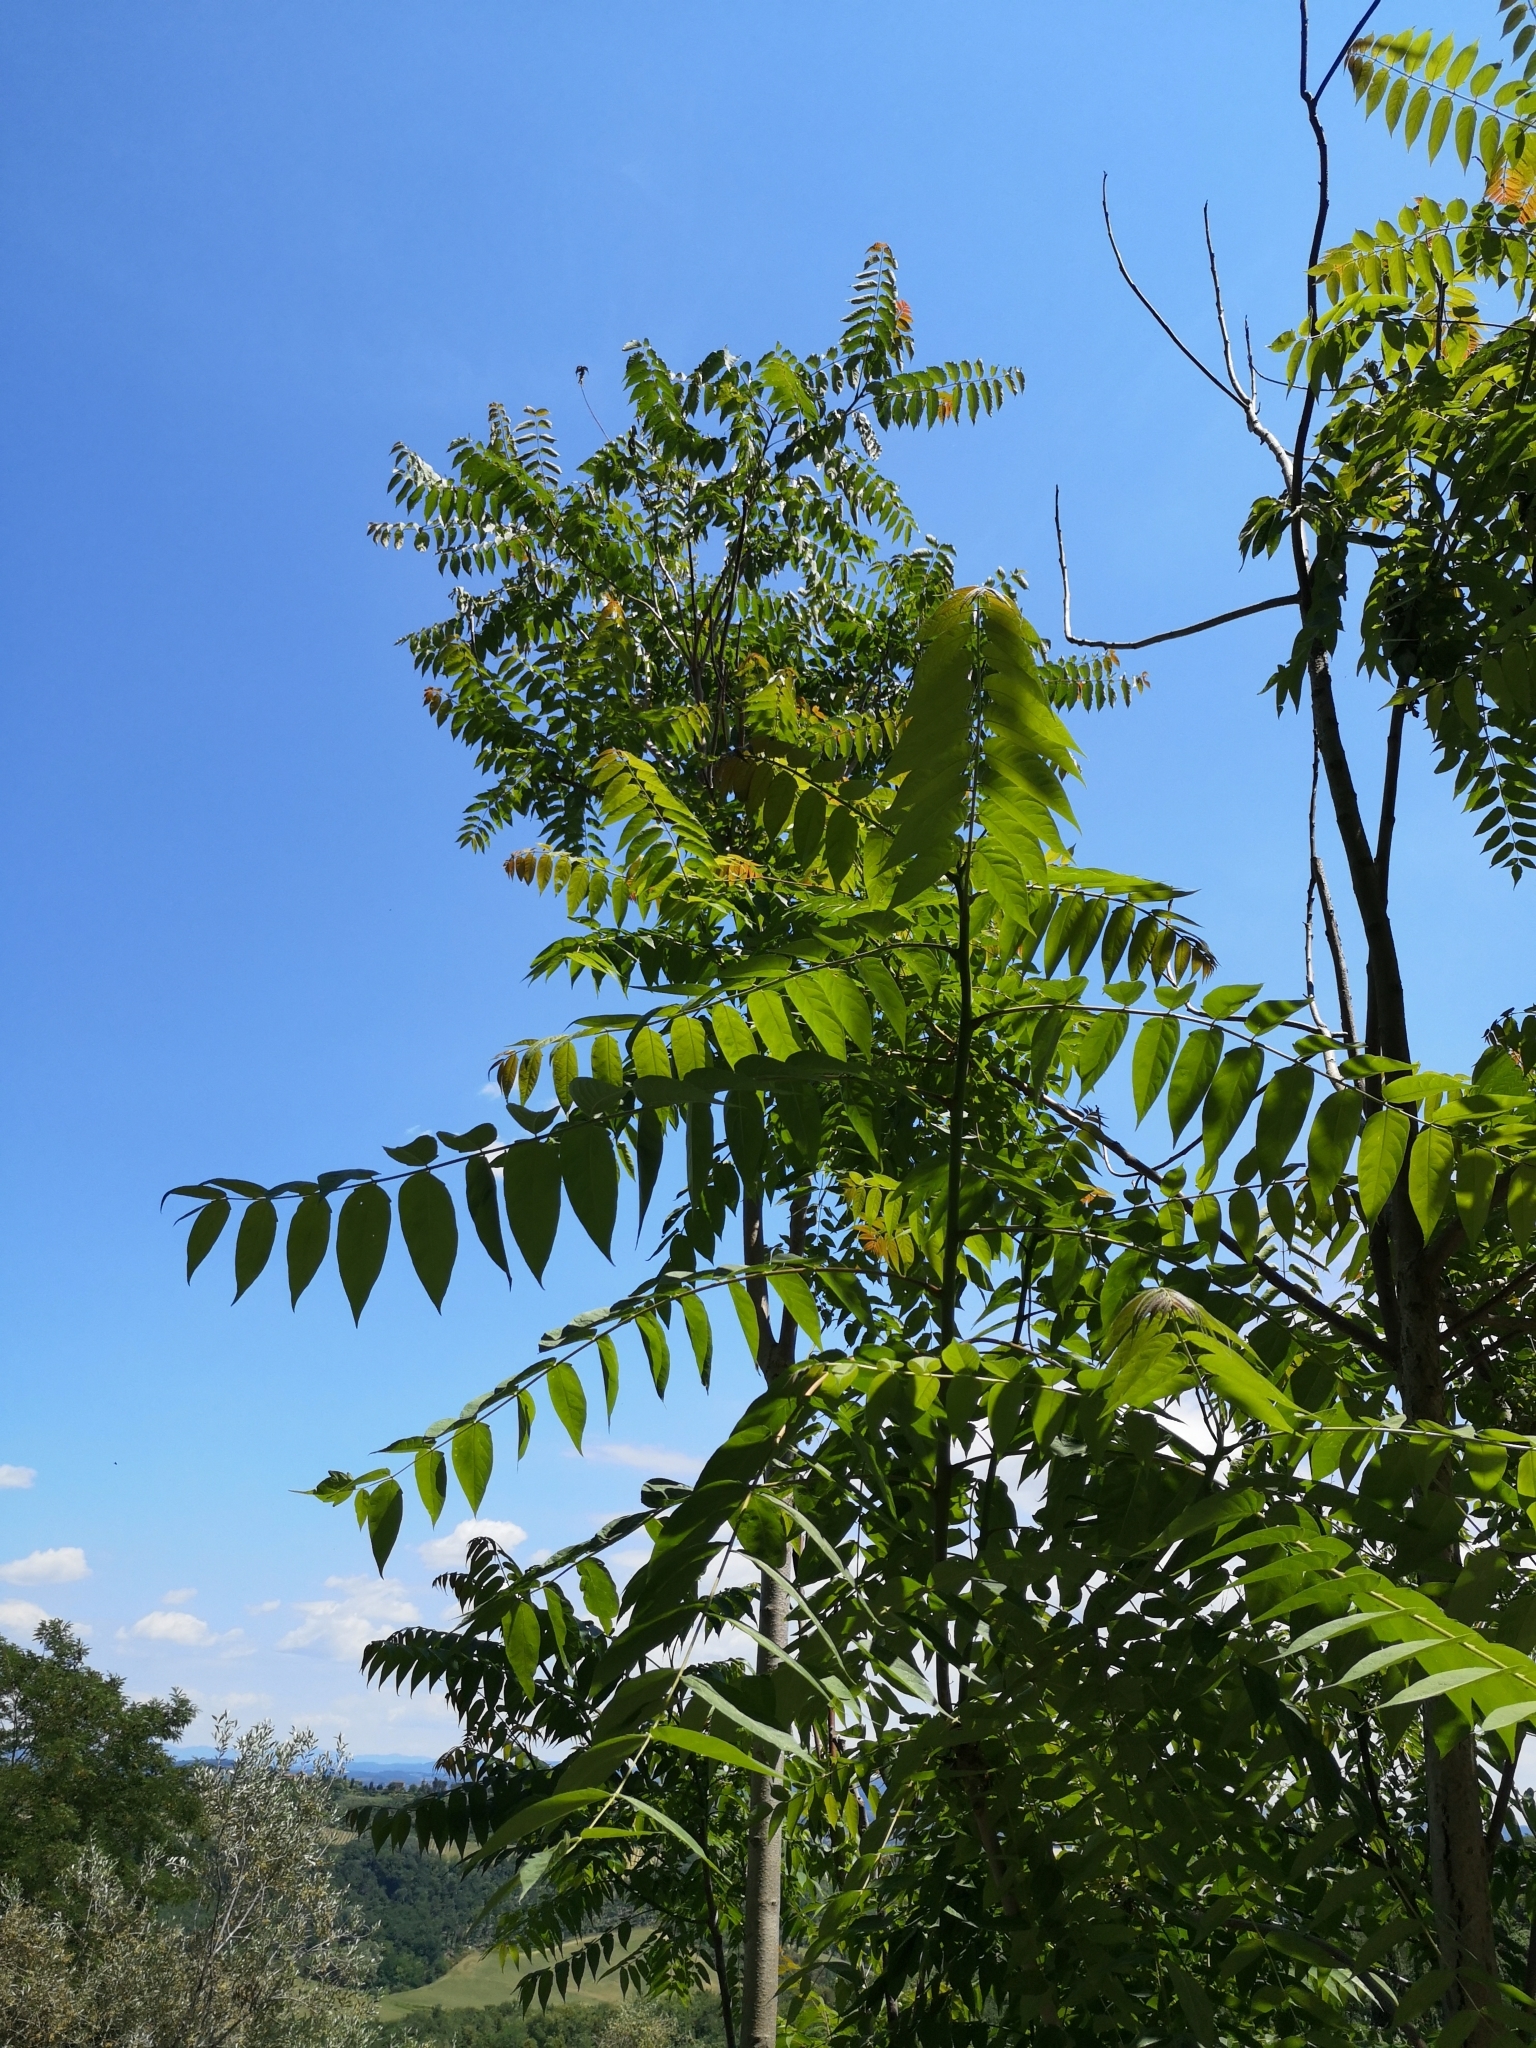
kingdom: Plantae
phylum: Tracheophyta
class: Magnoliopsida
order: Sapindales
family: Simaroubaceae
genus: Ailanthus
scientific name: Ailanthus altissima
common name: Tree-of-heaven
